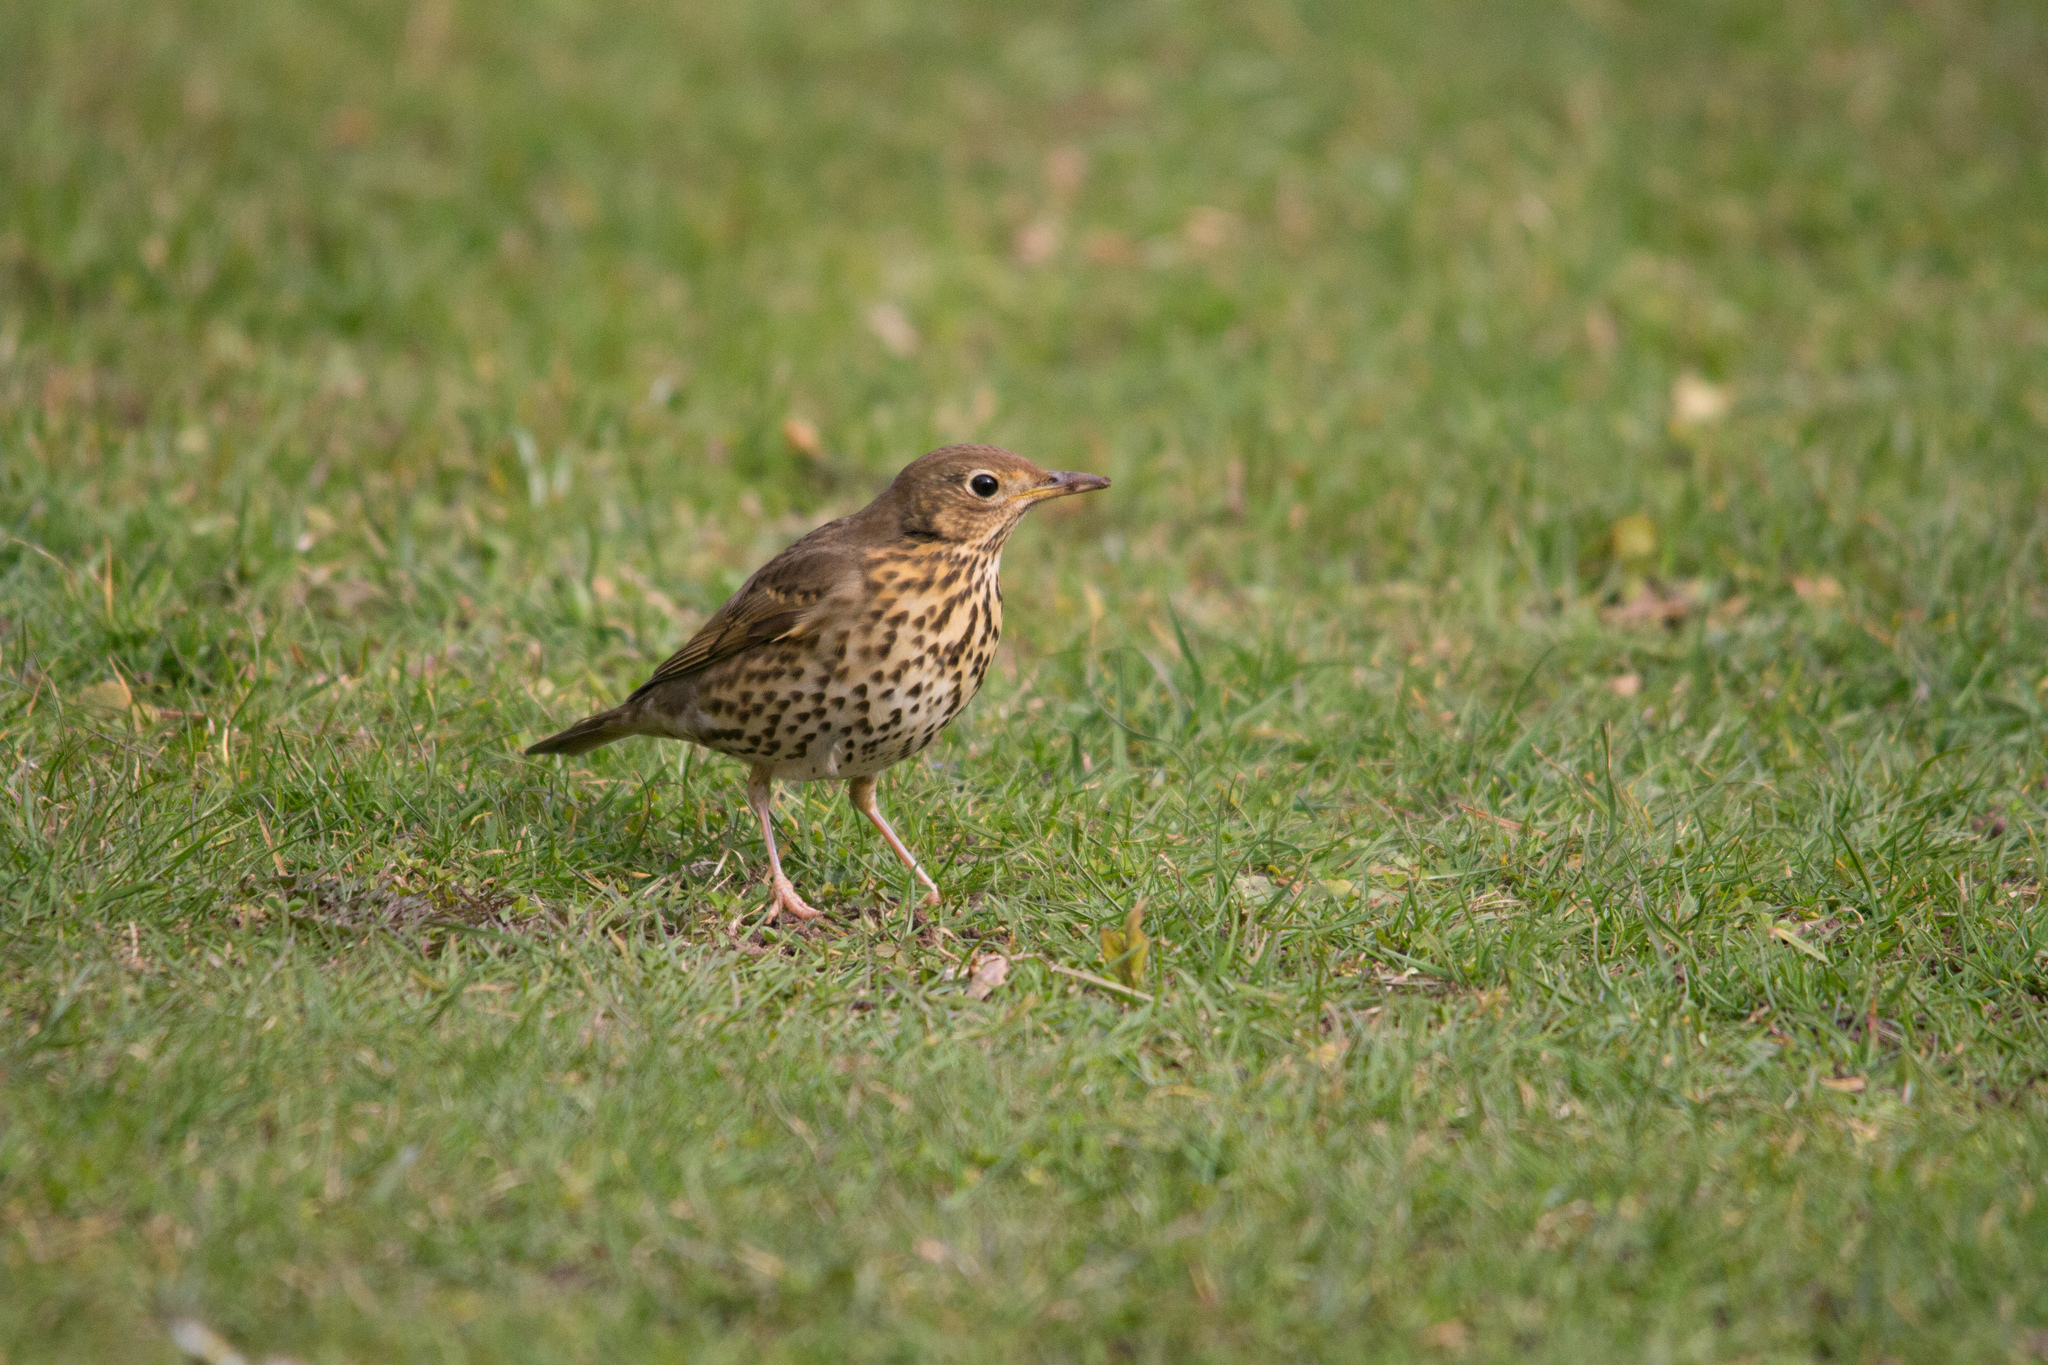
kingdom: Animalia
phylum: Chordata
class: Aves
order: Passeriformes
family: Turdidae
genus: Turdus
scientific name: Turdus philomelos
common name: Song thrush
